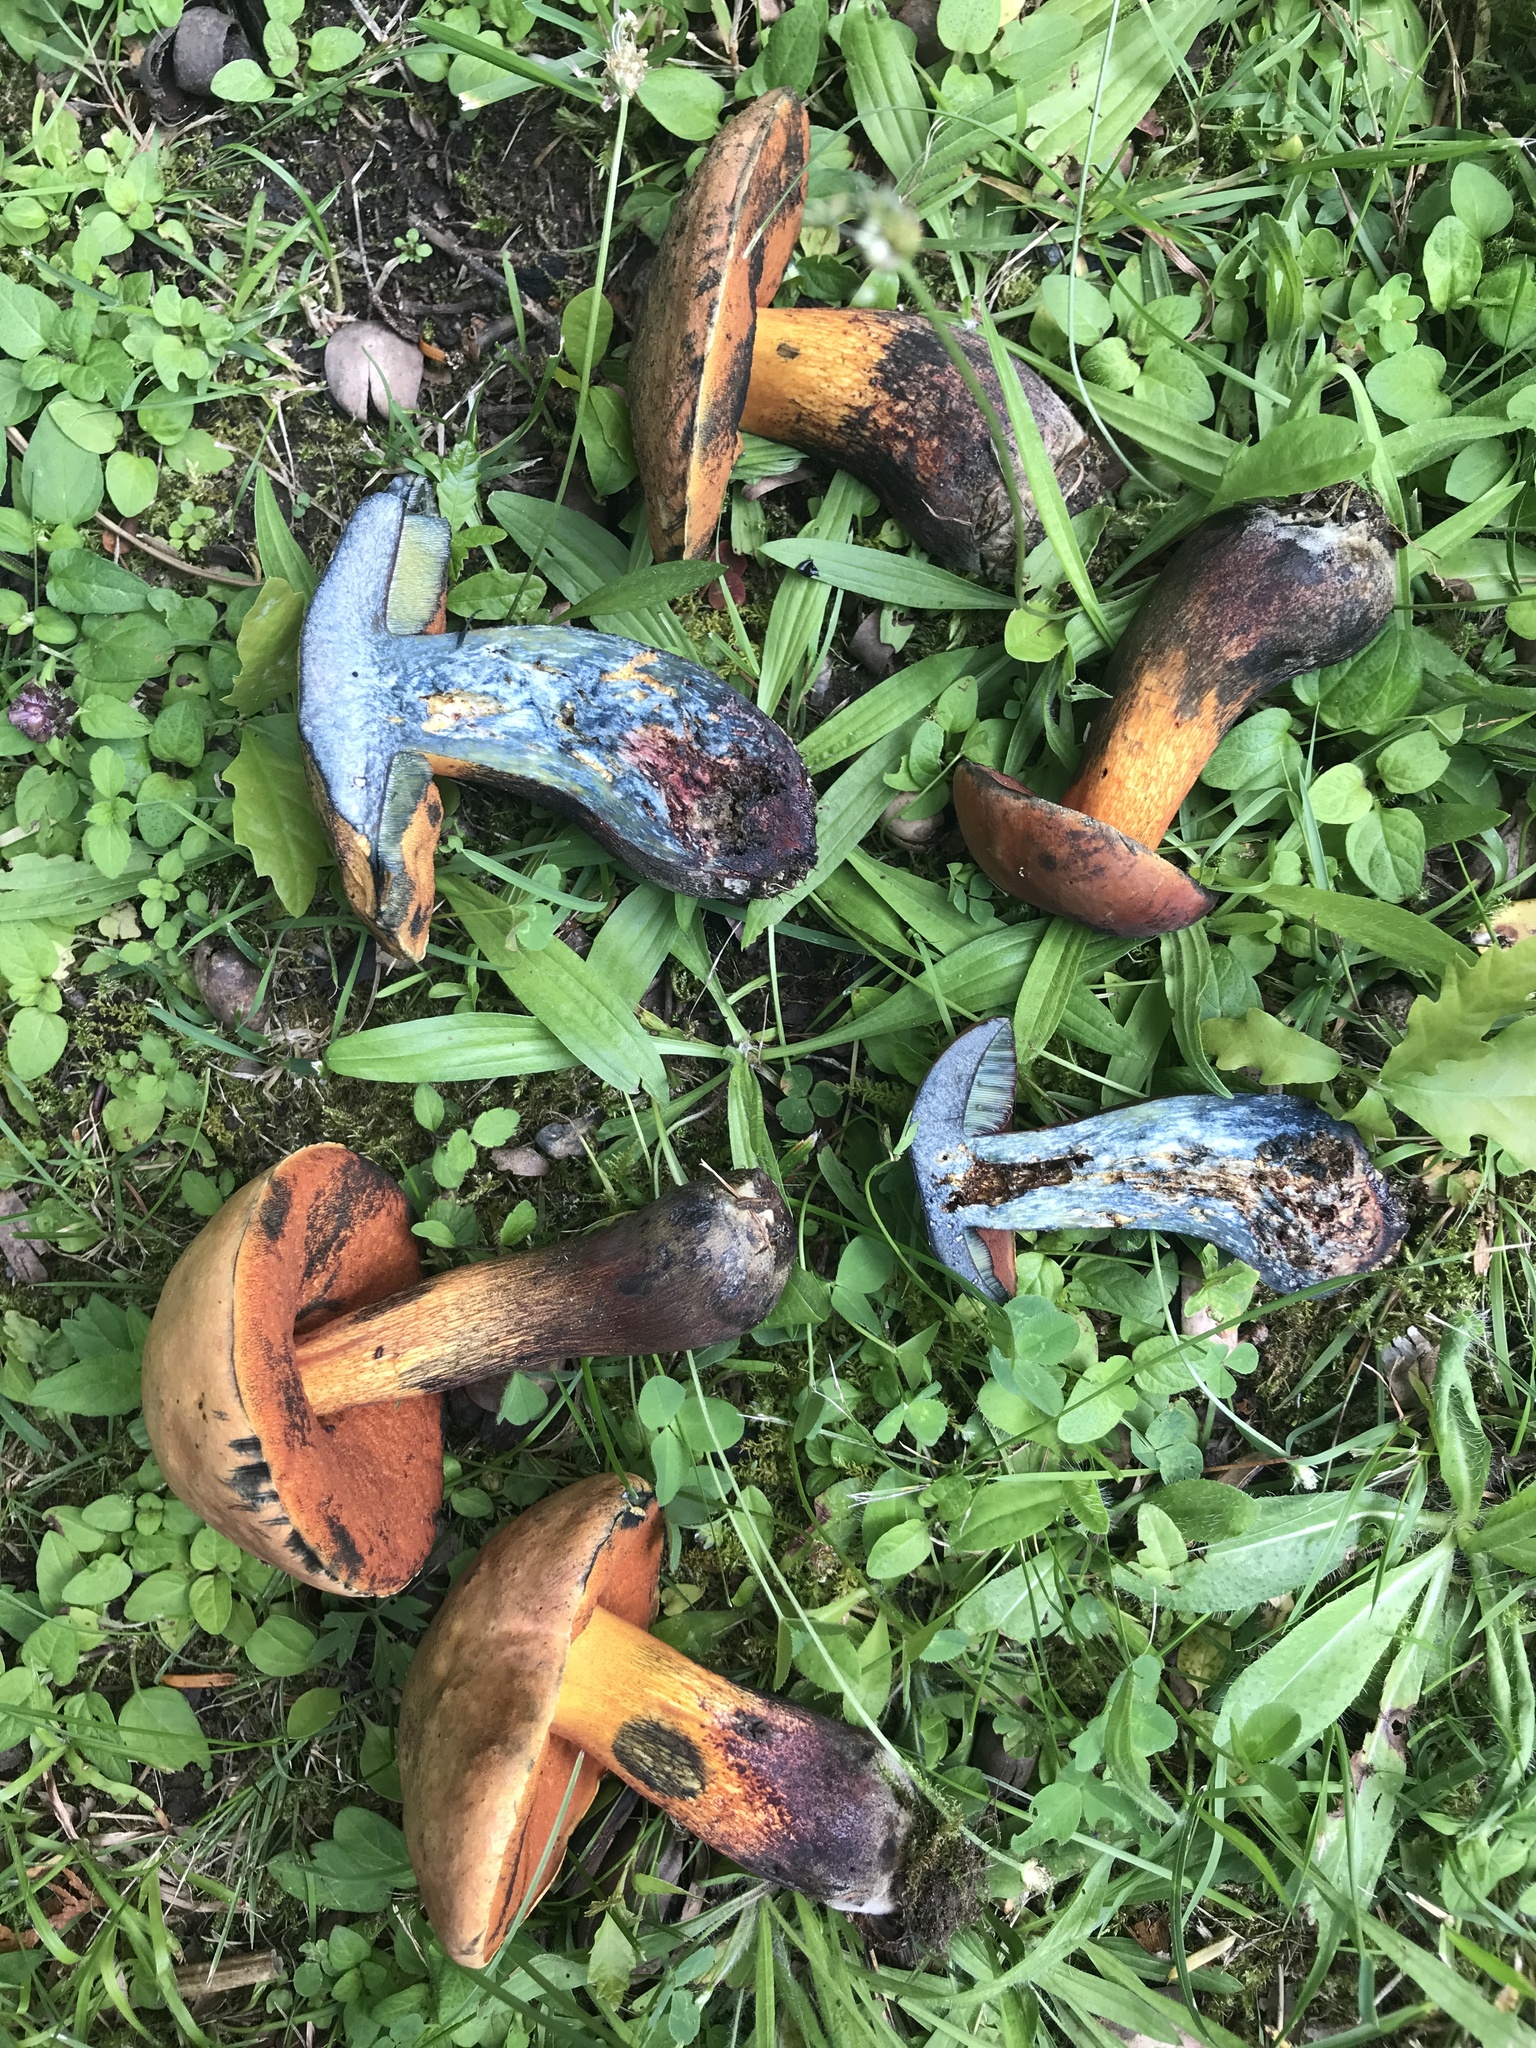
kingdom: Fungi
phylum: Basidiomycota
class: Agaricomycetes
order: Boletales
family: Boletaceae
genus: Suillellus
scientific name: Suillellus luridus
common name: Lurid bolete
